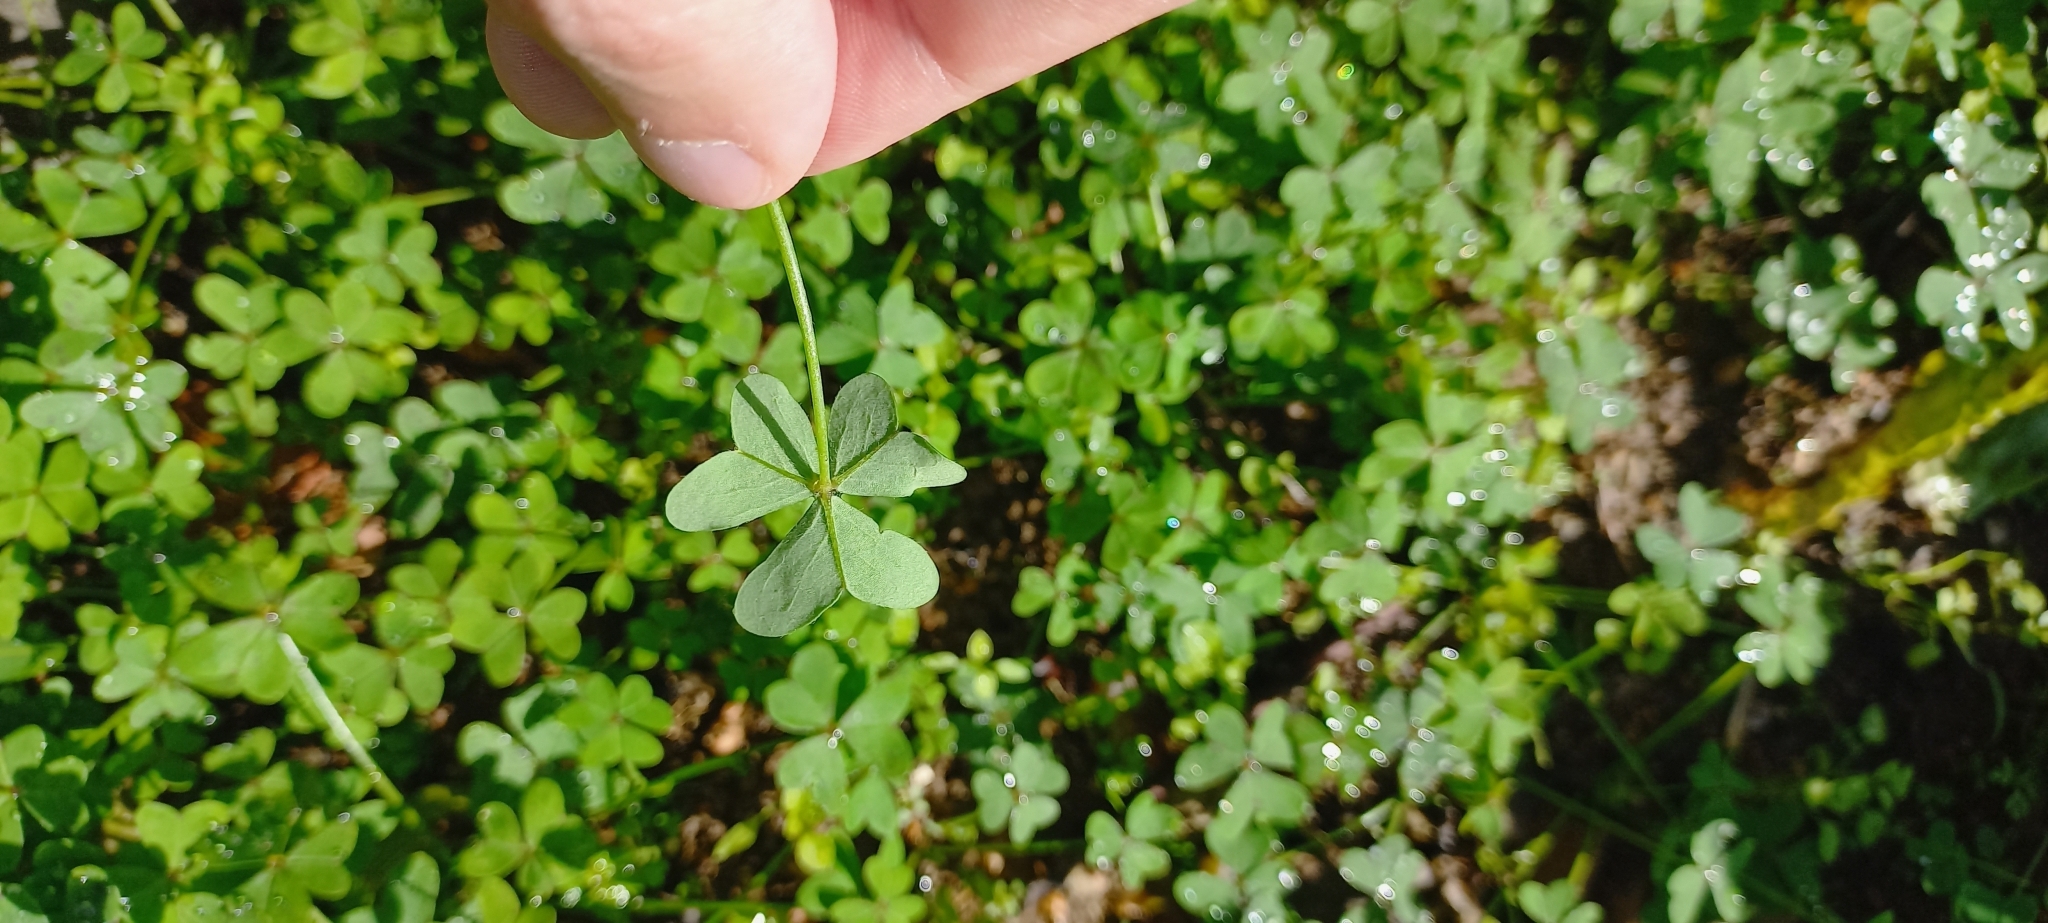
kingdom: Plantae
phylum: Tracheophyta
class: Magnoliopsida
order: Oxalidales
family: Oxalidaceae
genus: Oxalis
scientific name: Oxalis pes-caprae
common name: Bermuda-buttercup
